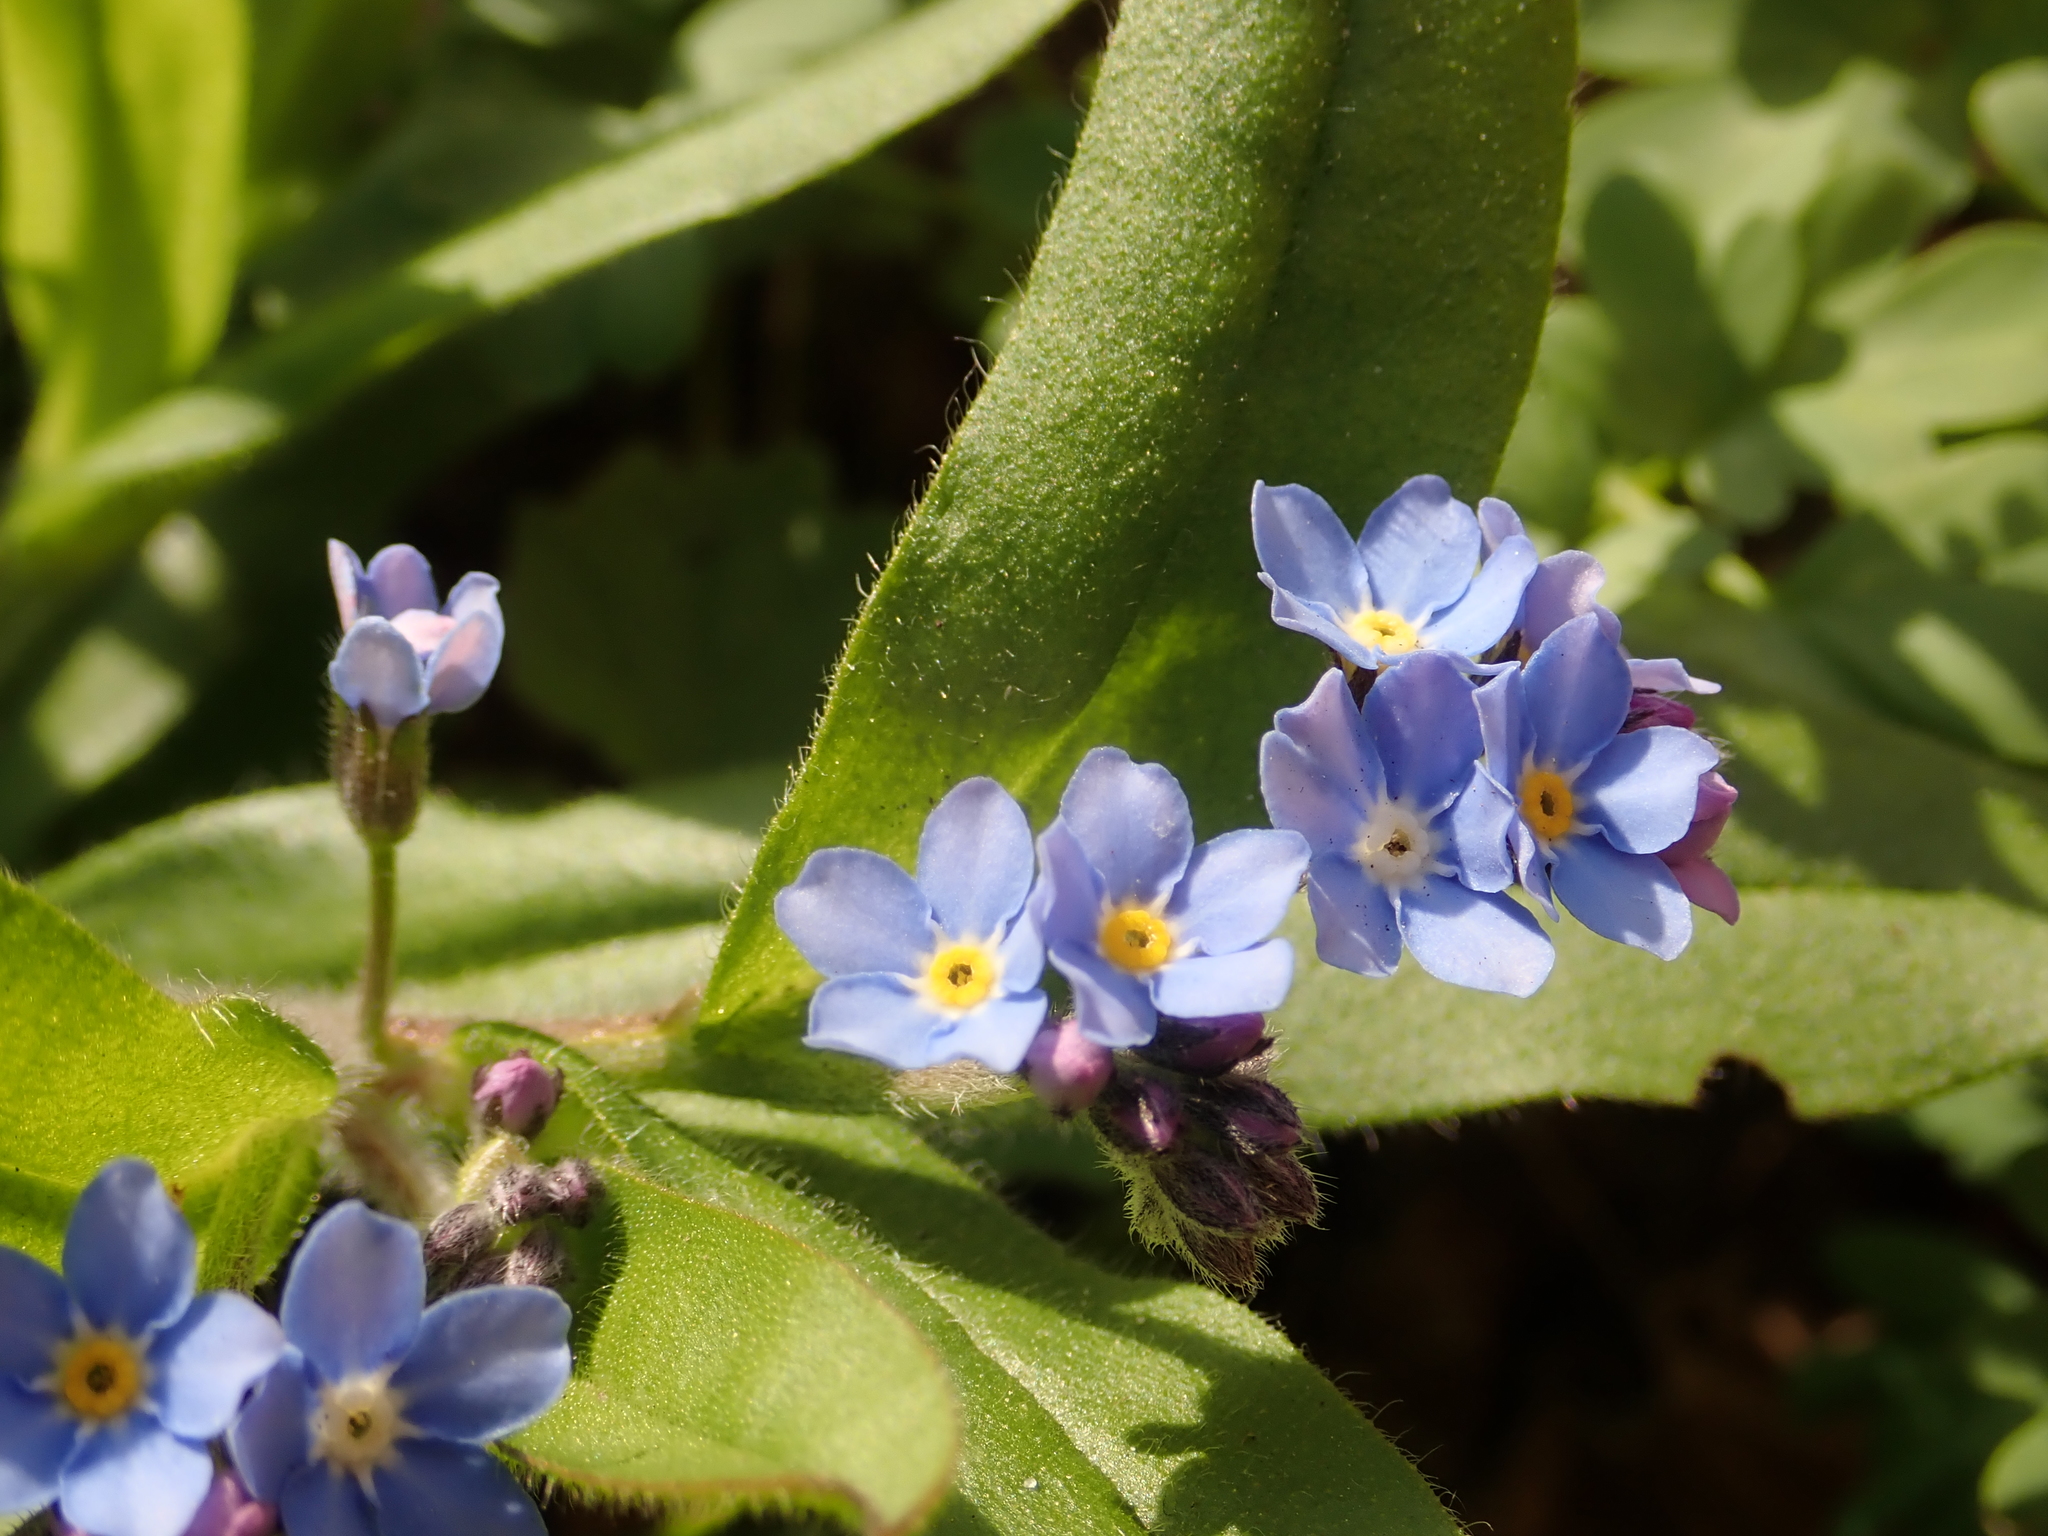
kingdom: Plantae
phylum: Tracheophyta
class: Magnoliopsida
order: Boraginales
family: Boraginaceae
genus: Myosotis
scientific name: Myosotis sylvatica
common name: Wood forget-me-not
